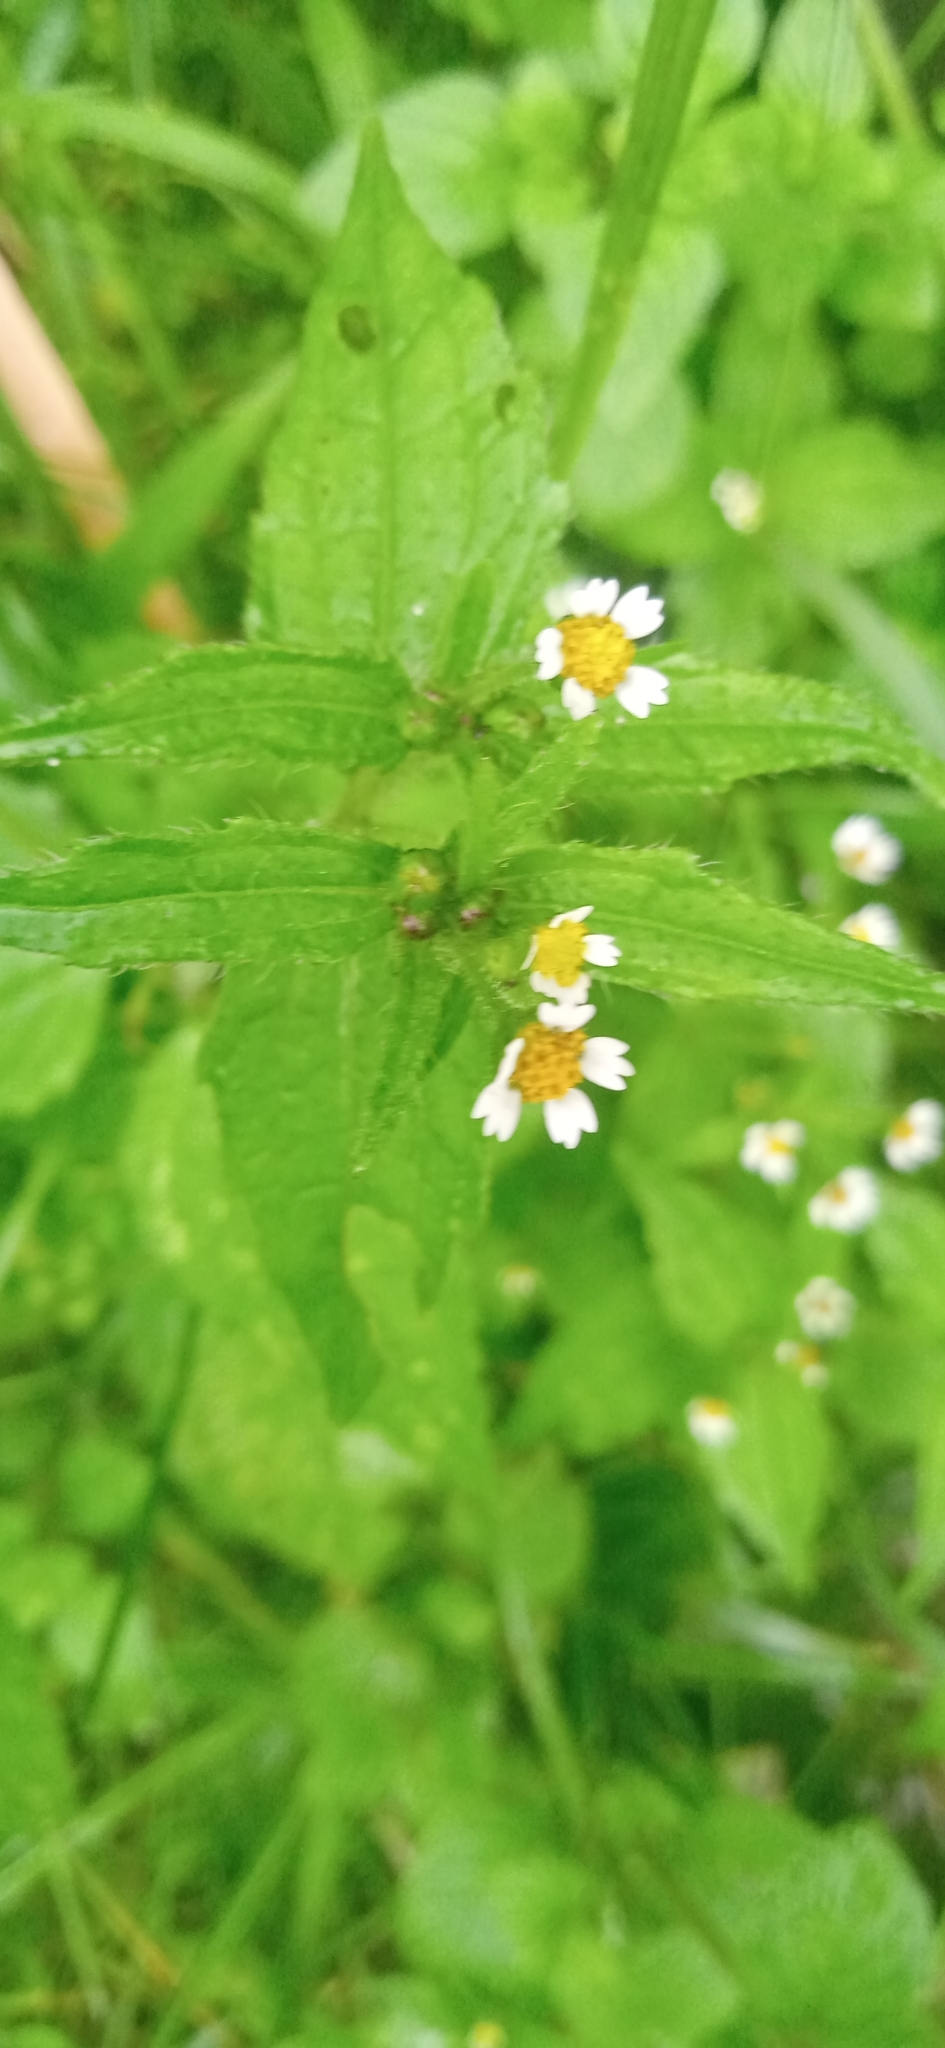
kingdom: Plantae
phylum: Tracheophyta
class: Magnoliopsida
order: Asterales
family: Asteraceae
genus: Galinsoga
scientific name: Galinsoga quadriradiata
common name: Shaggy soldier
